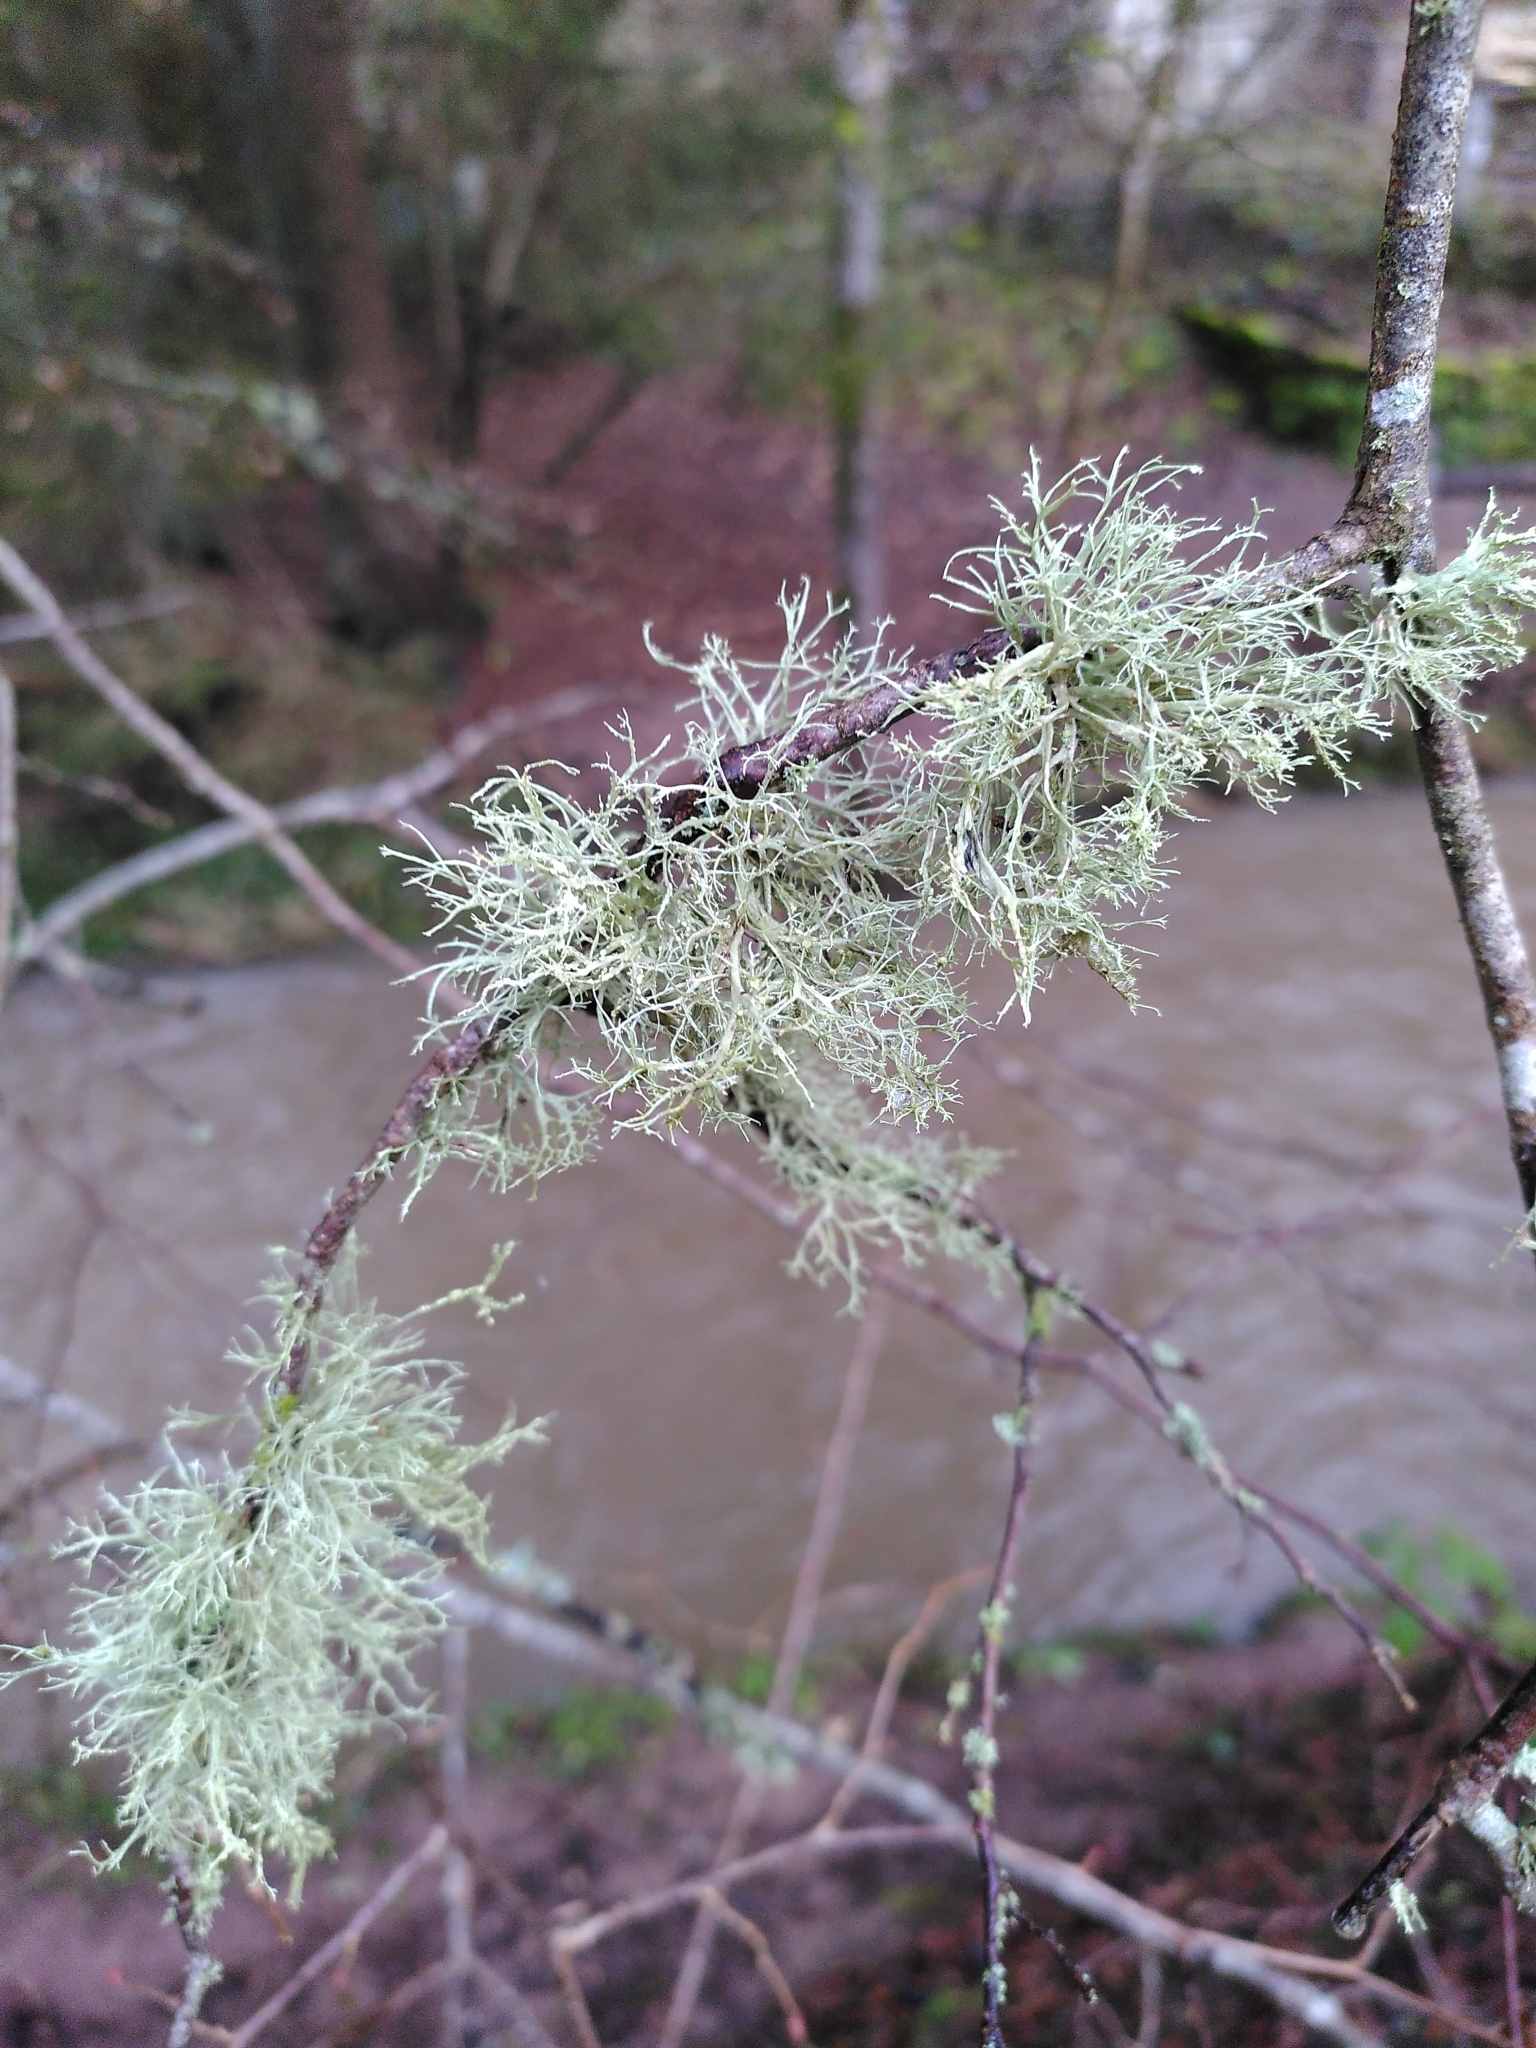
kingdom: Fungi
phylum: Ascomycota
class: Lecanoromycetes
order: Lecanorales
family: Ramalinaceae
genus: Ramalina
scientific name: Ramalina farinacea
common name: Farinose cartilage lichen
